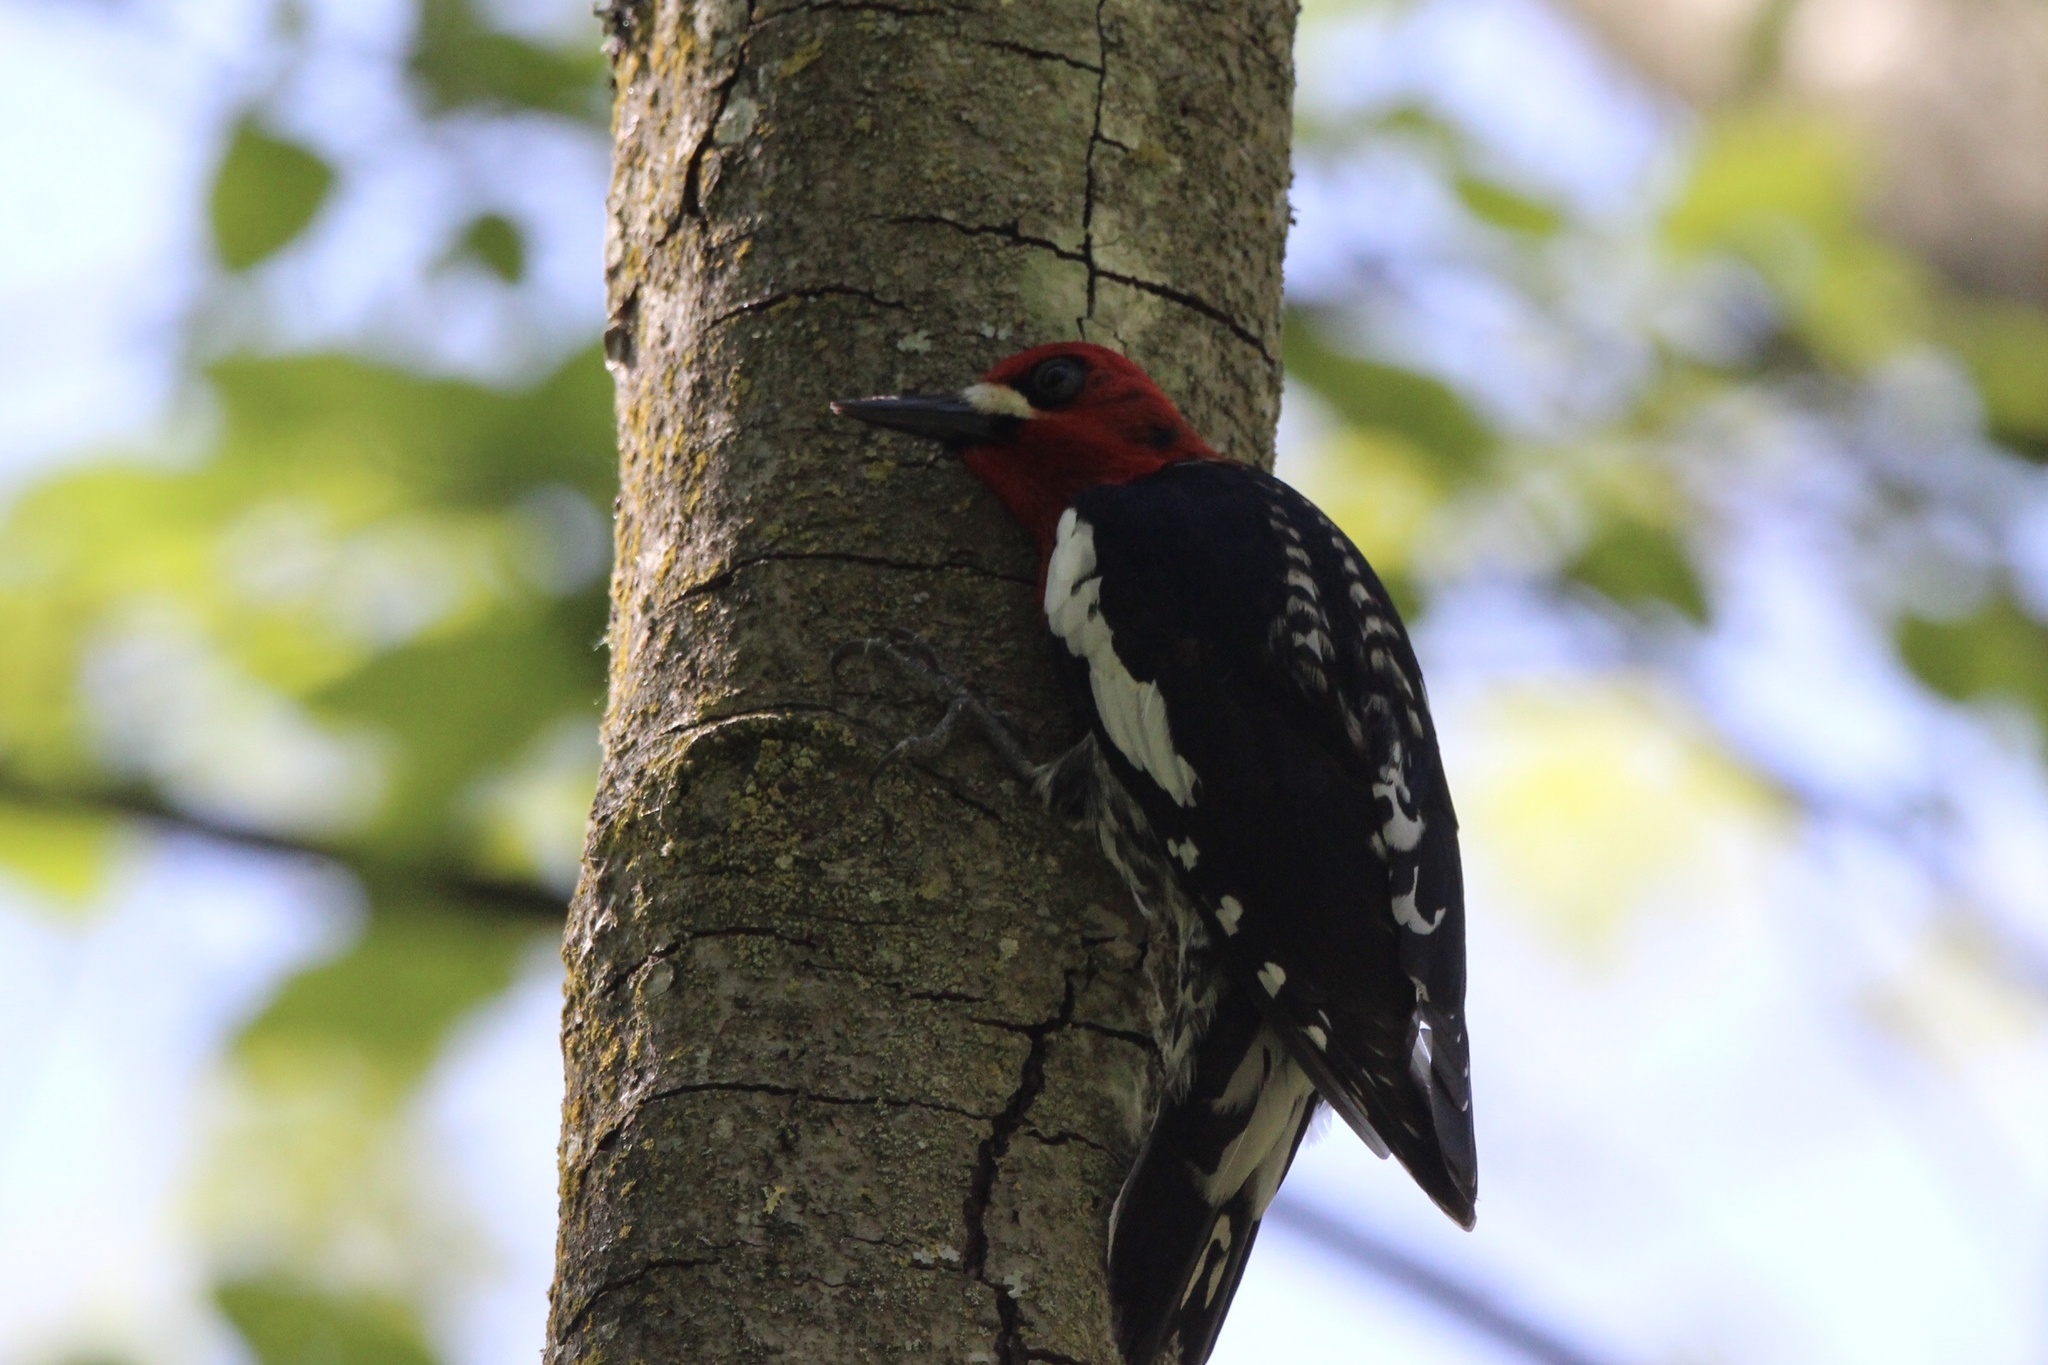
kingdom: Animalia
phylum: Chordata
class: Aves
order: Piciformes
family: Picidae
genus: Sphyrapicus
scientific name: Sphyrapicus ruber
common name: Red-breasted sapsucker
